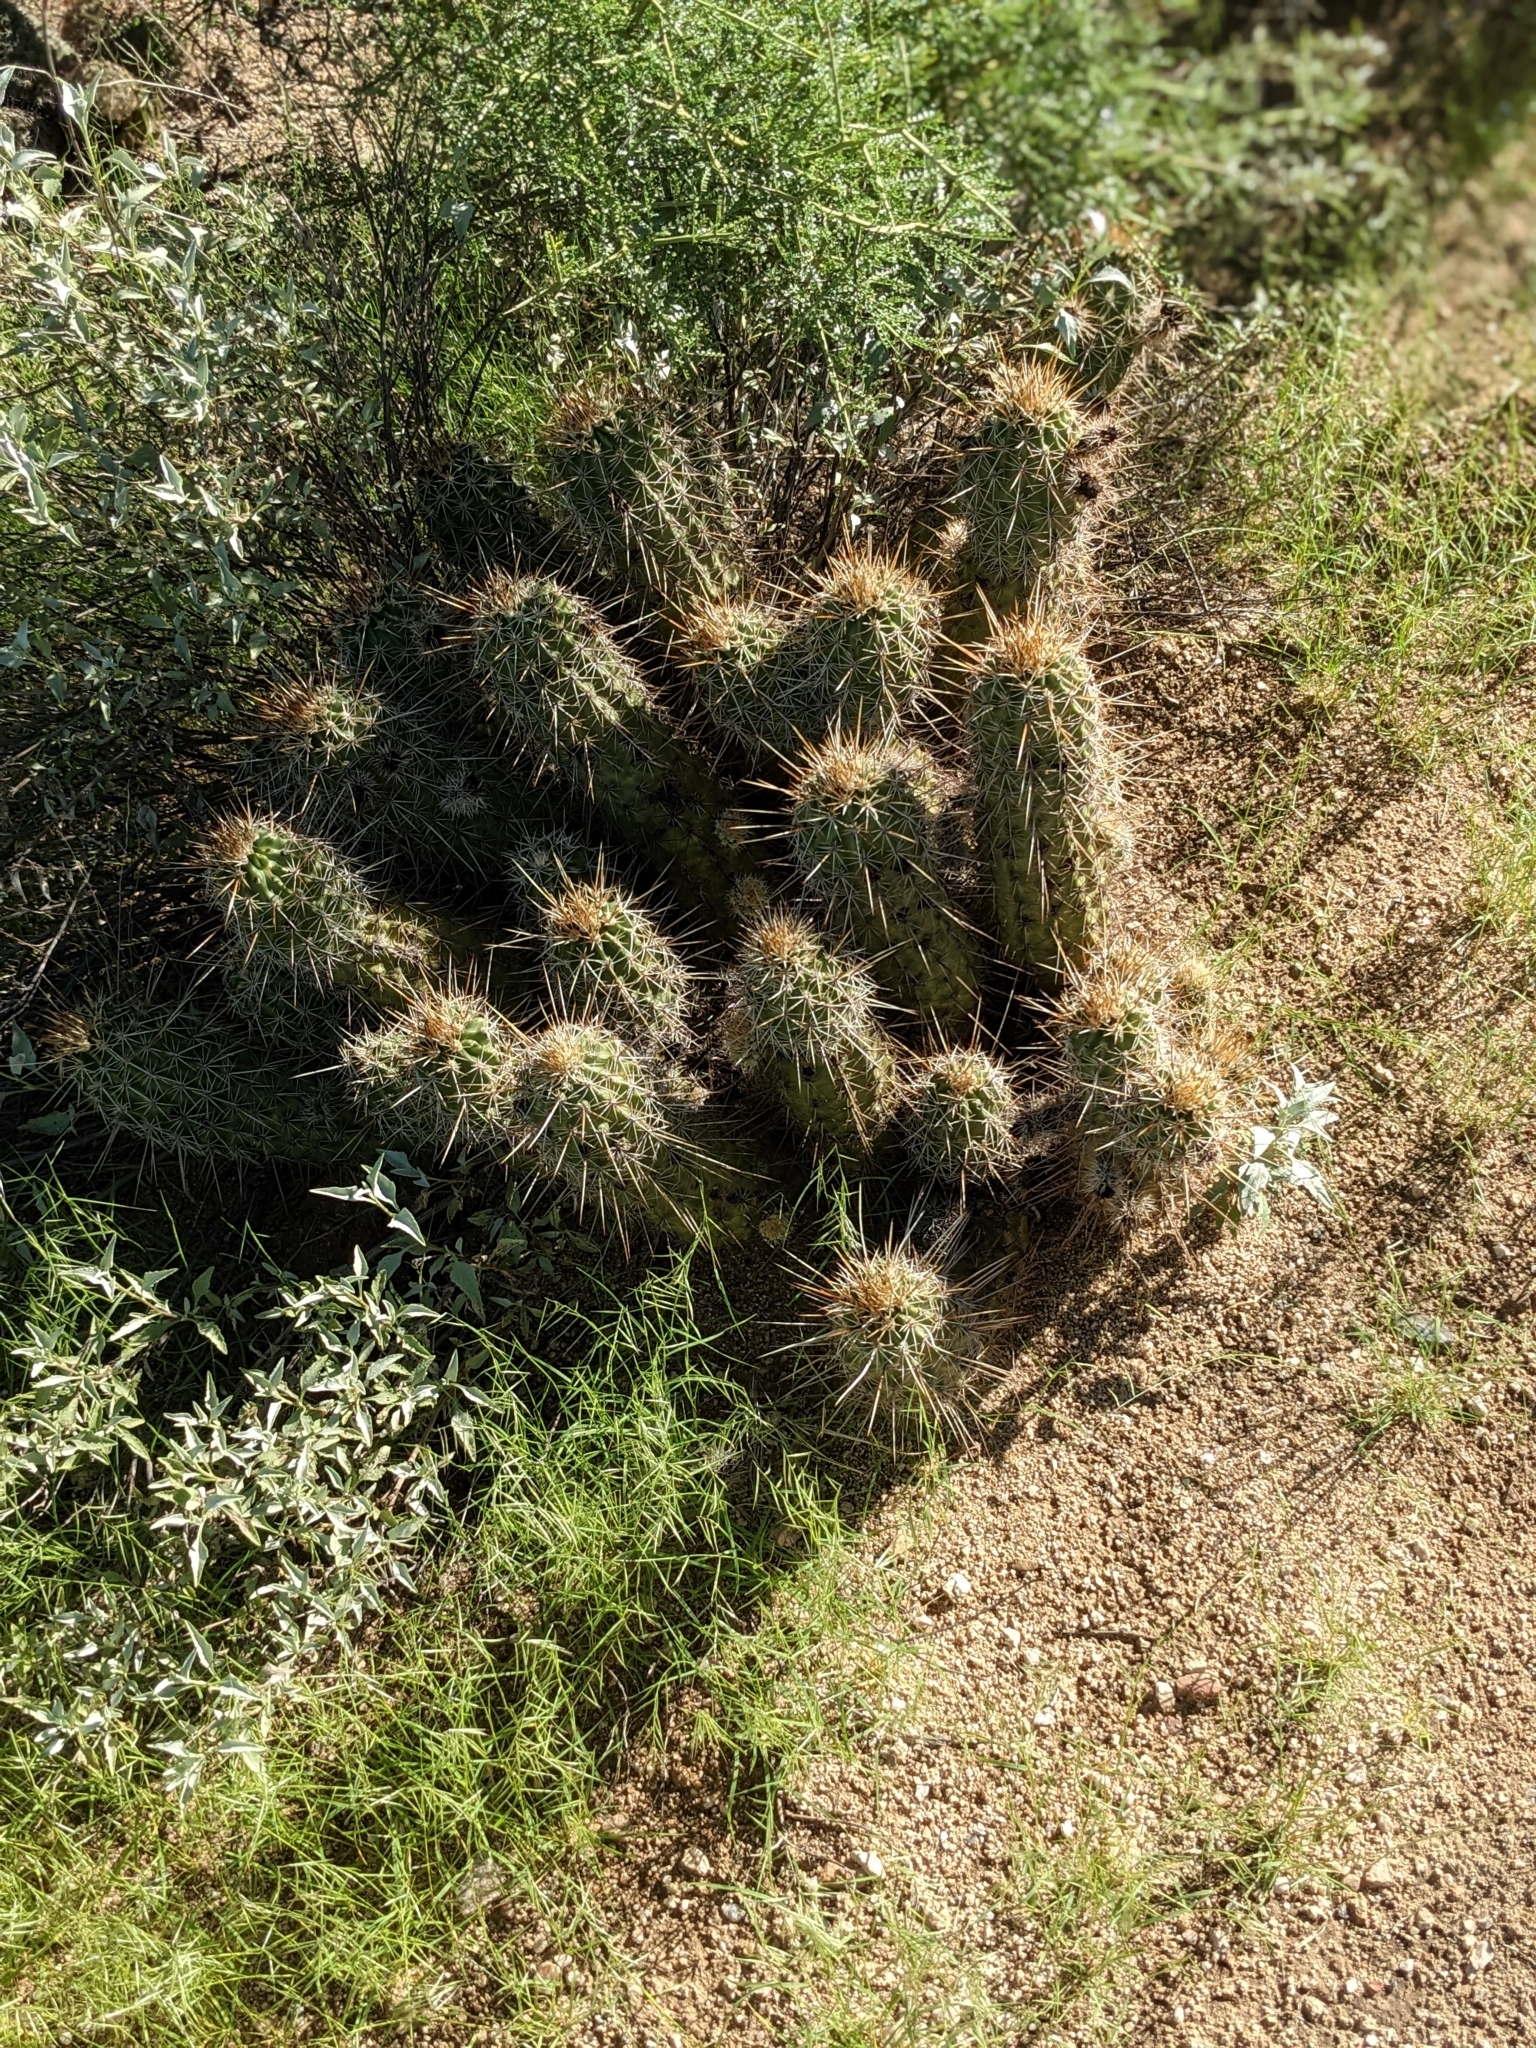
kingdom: Plantae
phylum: Tracheophyta
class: Magnoliopsida
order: Caryophyllales
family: Cactaceae
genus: Echinocereus
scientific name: Echinocereus engelmannii
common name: Engelmann's hedgehog cactus
